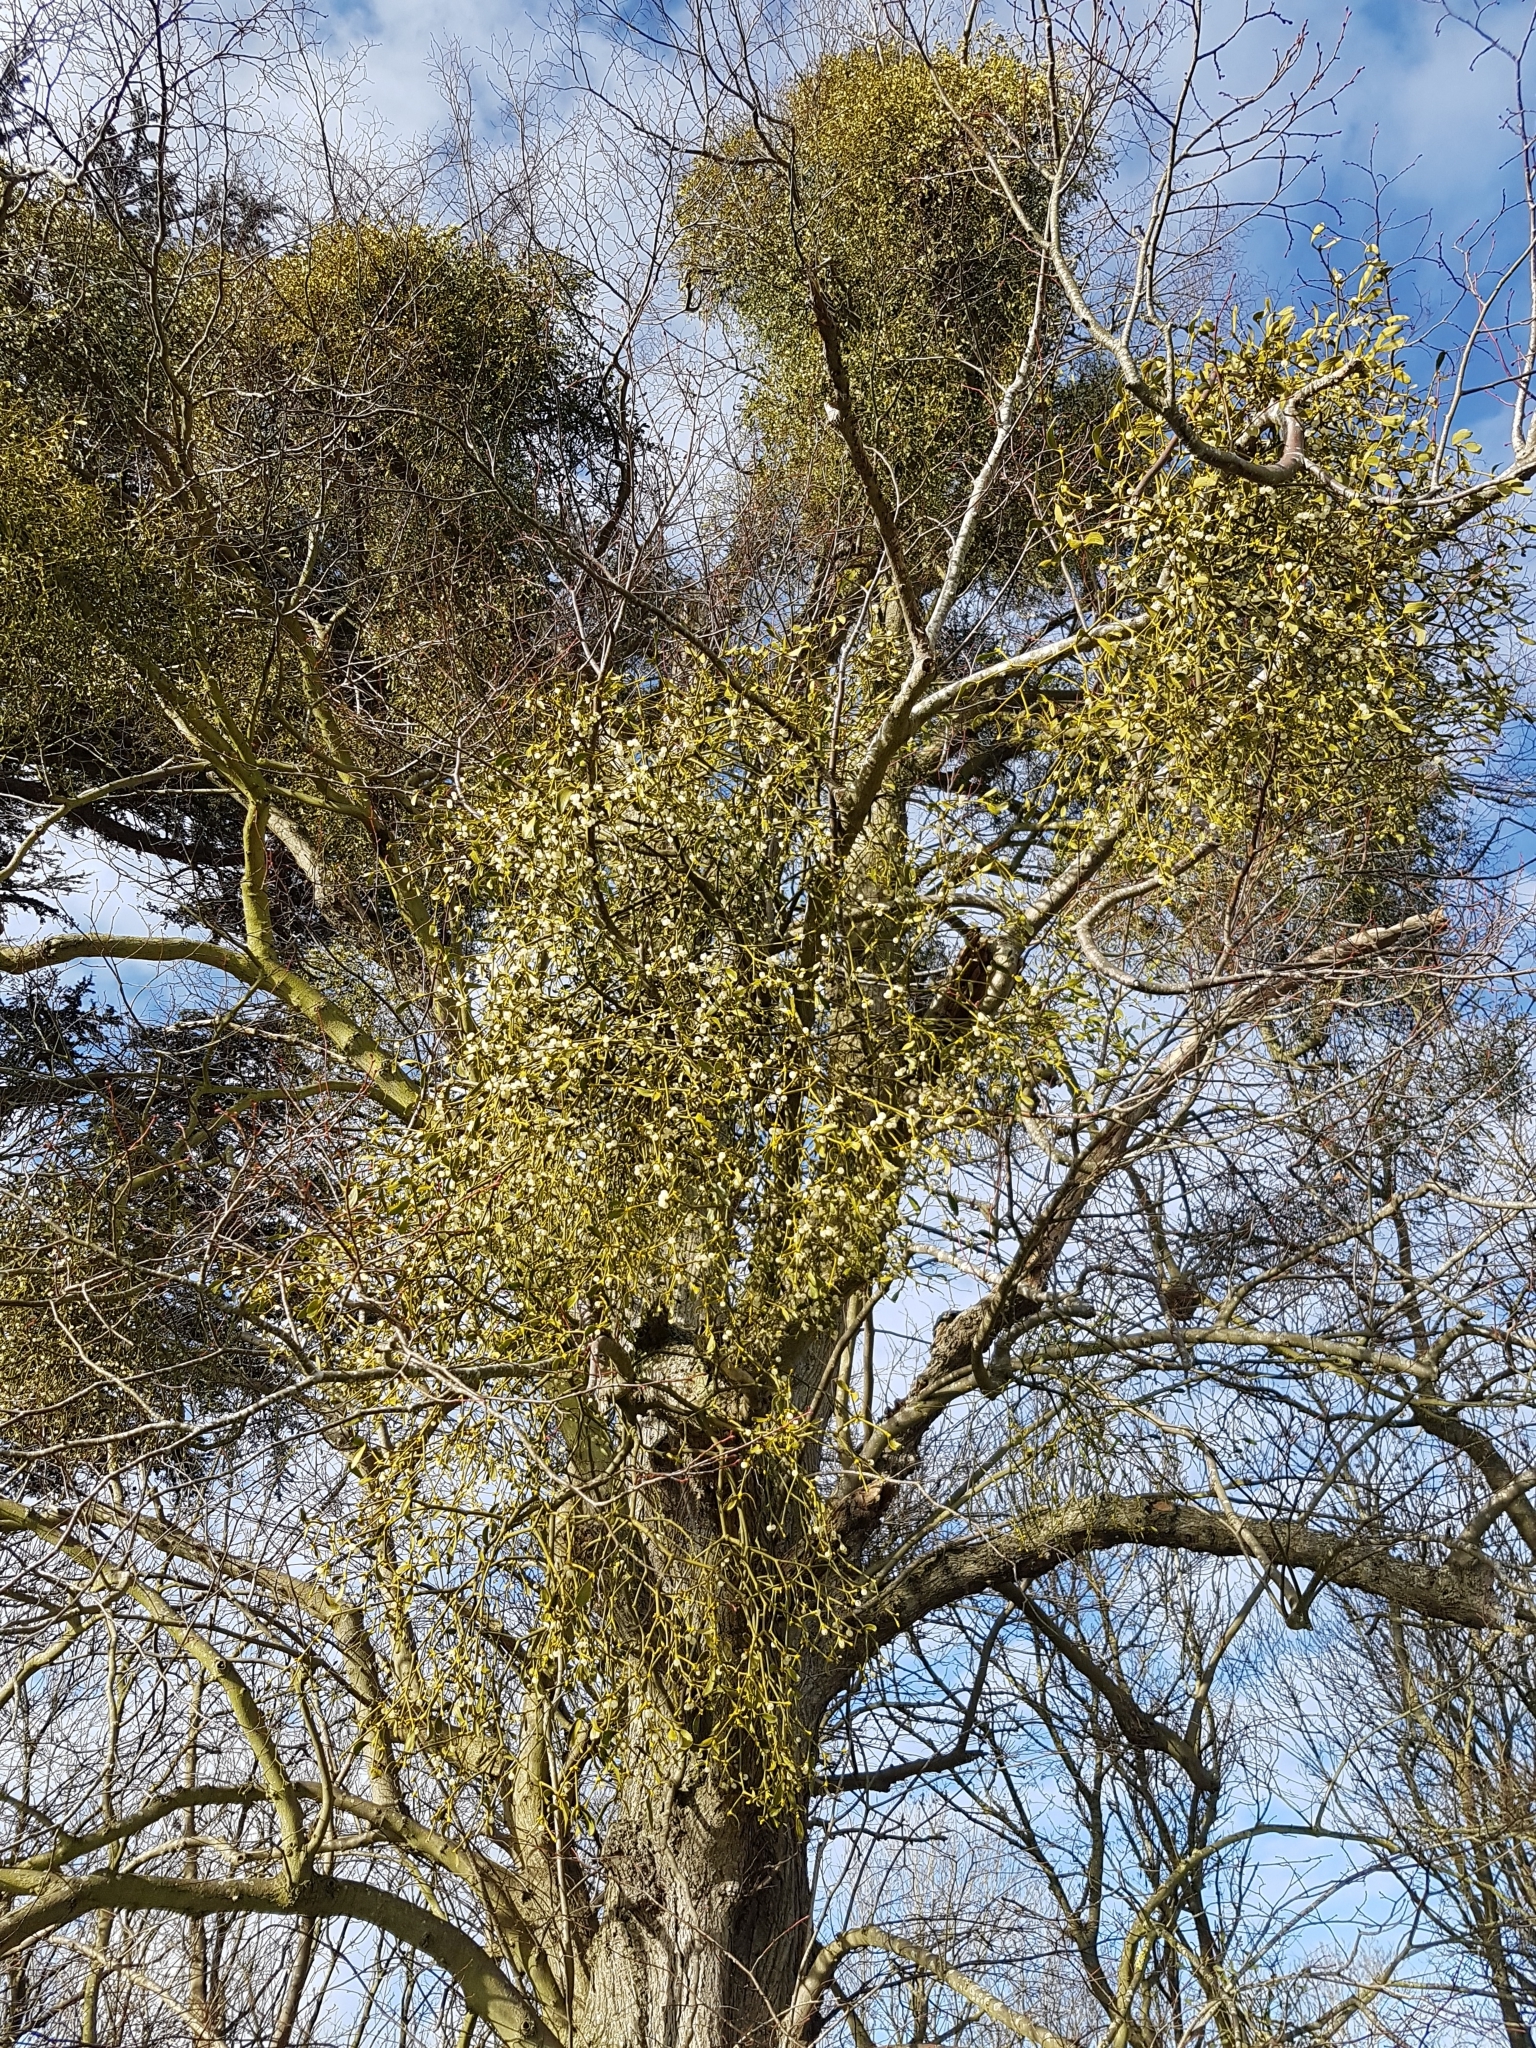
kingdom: Plantae
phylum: Tracheophyta
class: Magnoliopsida
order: Santalales
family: Viscaceae
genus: Viscum
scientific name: Viscum album
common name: Mistletoe
